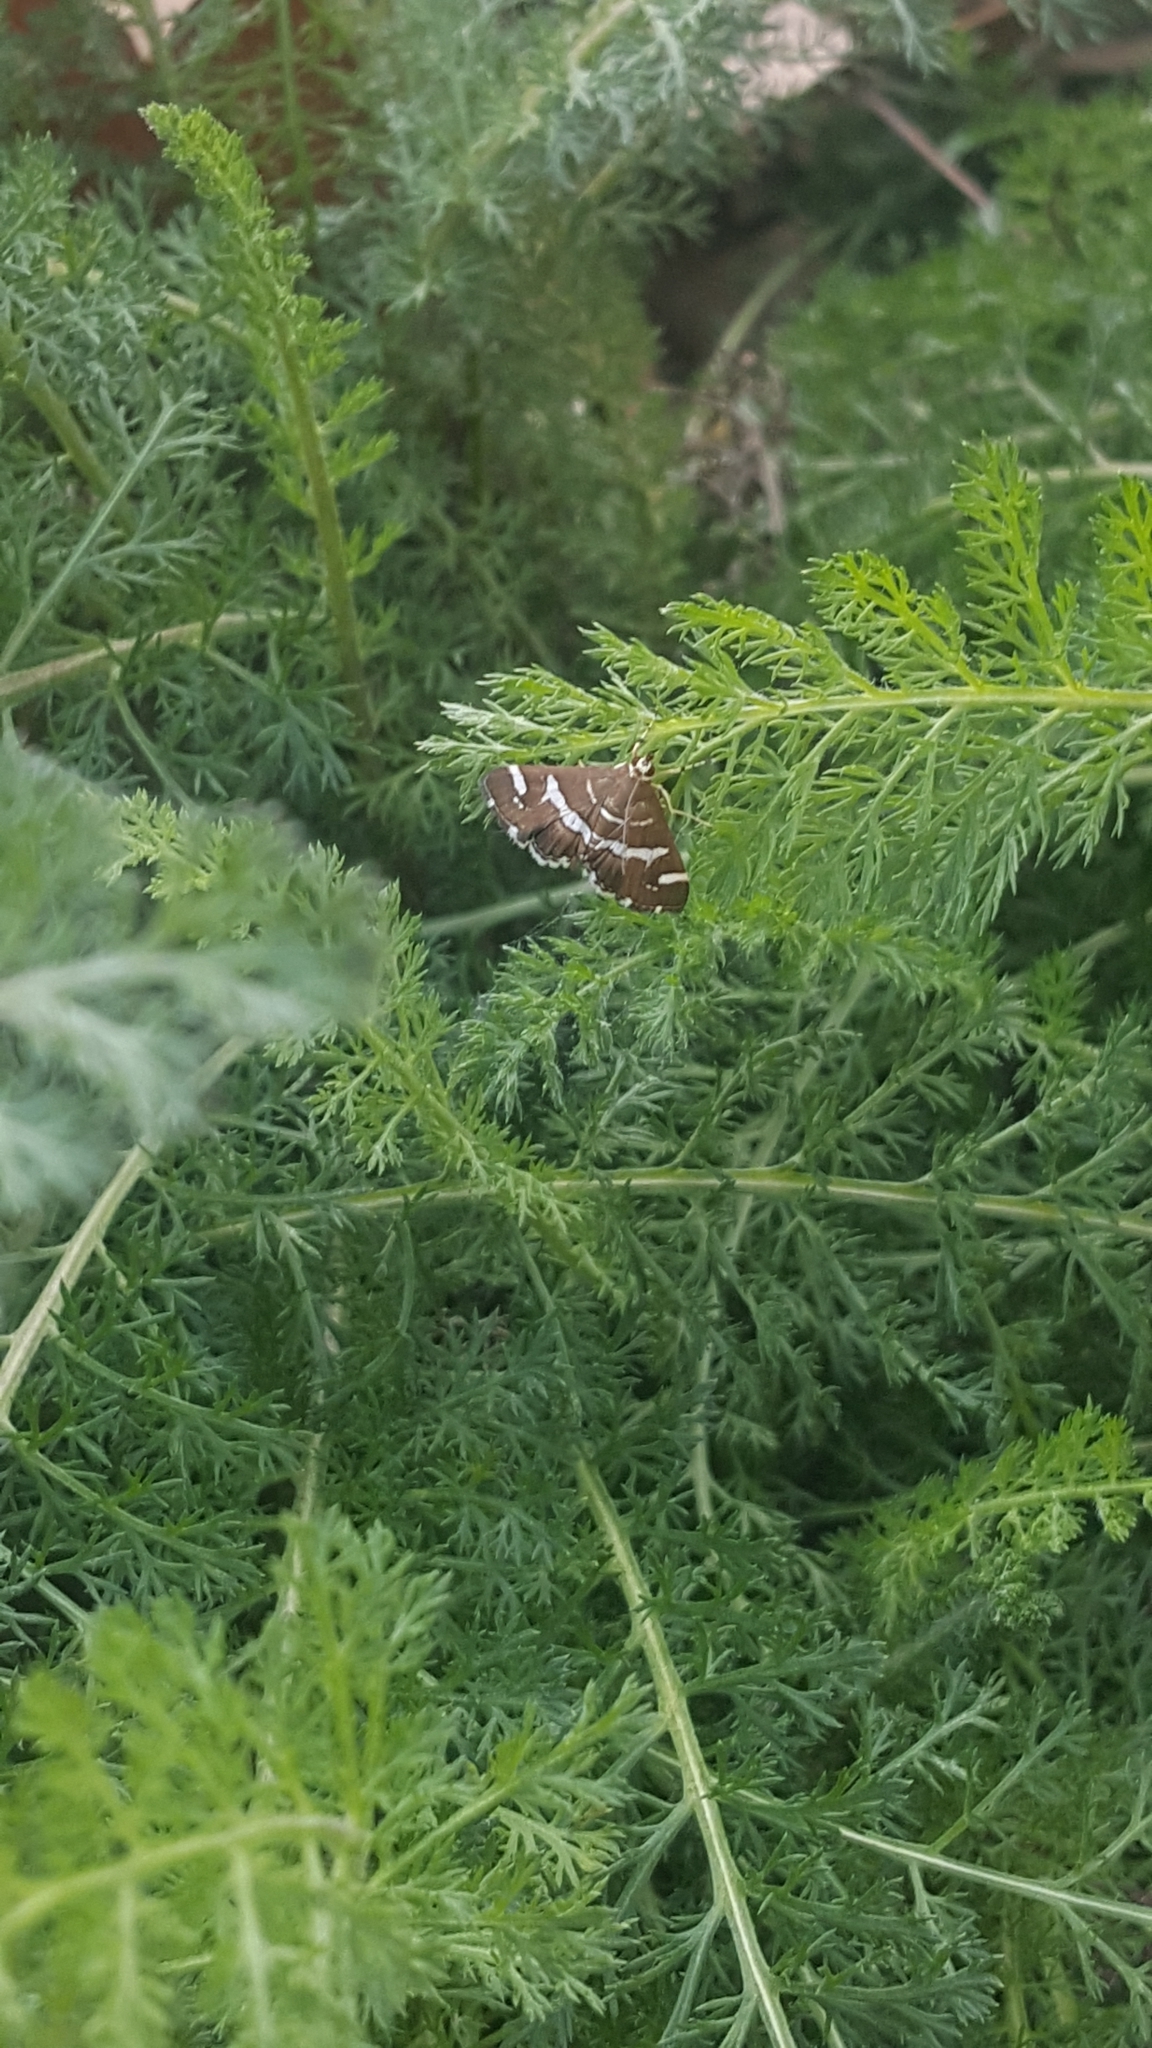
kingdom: Animalia
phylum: Arthropoda
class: Insecta
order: Lepidoptera
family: Crambidae
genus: Spoladea
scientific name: Spoladea recurvalis
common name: Beet webworm moth
